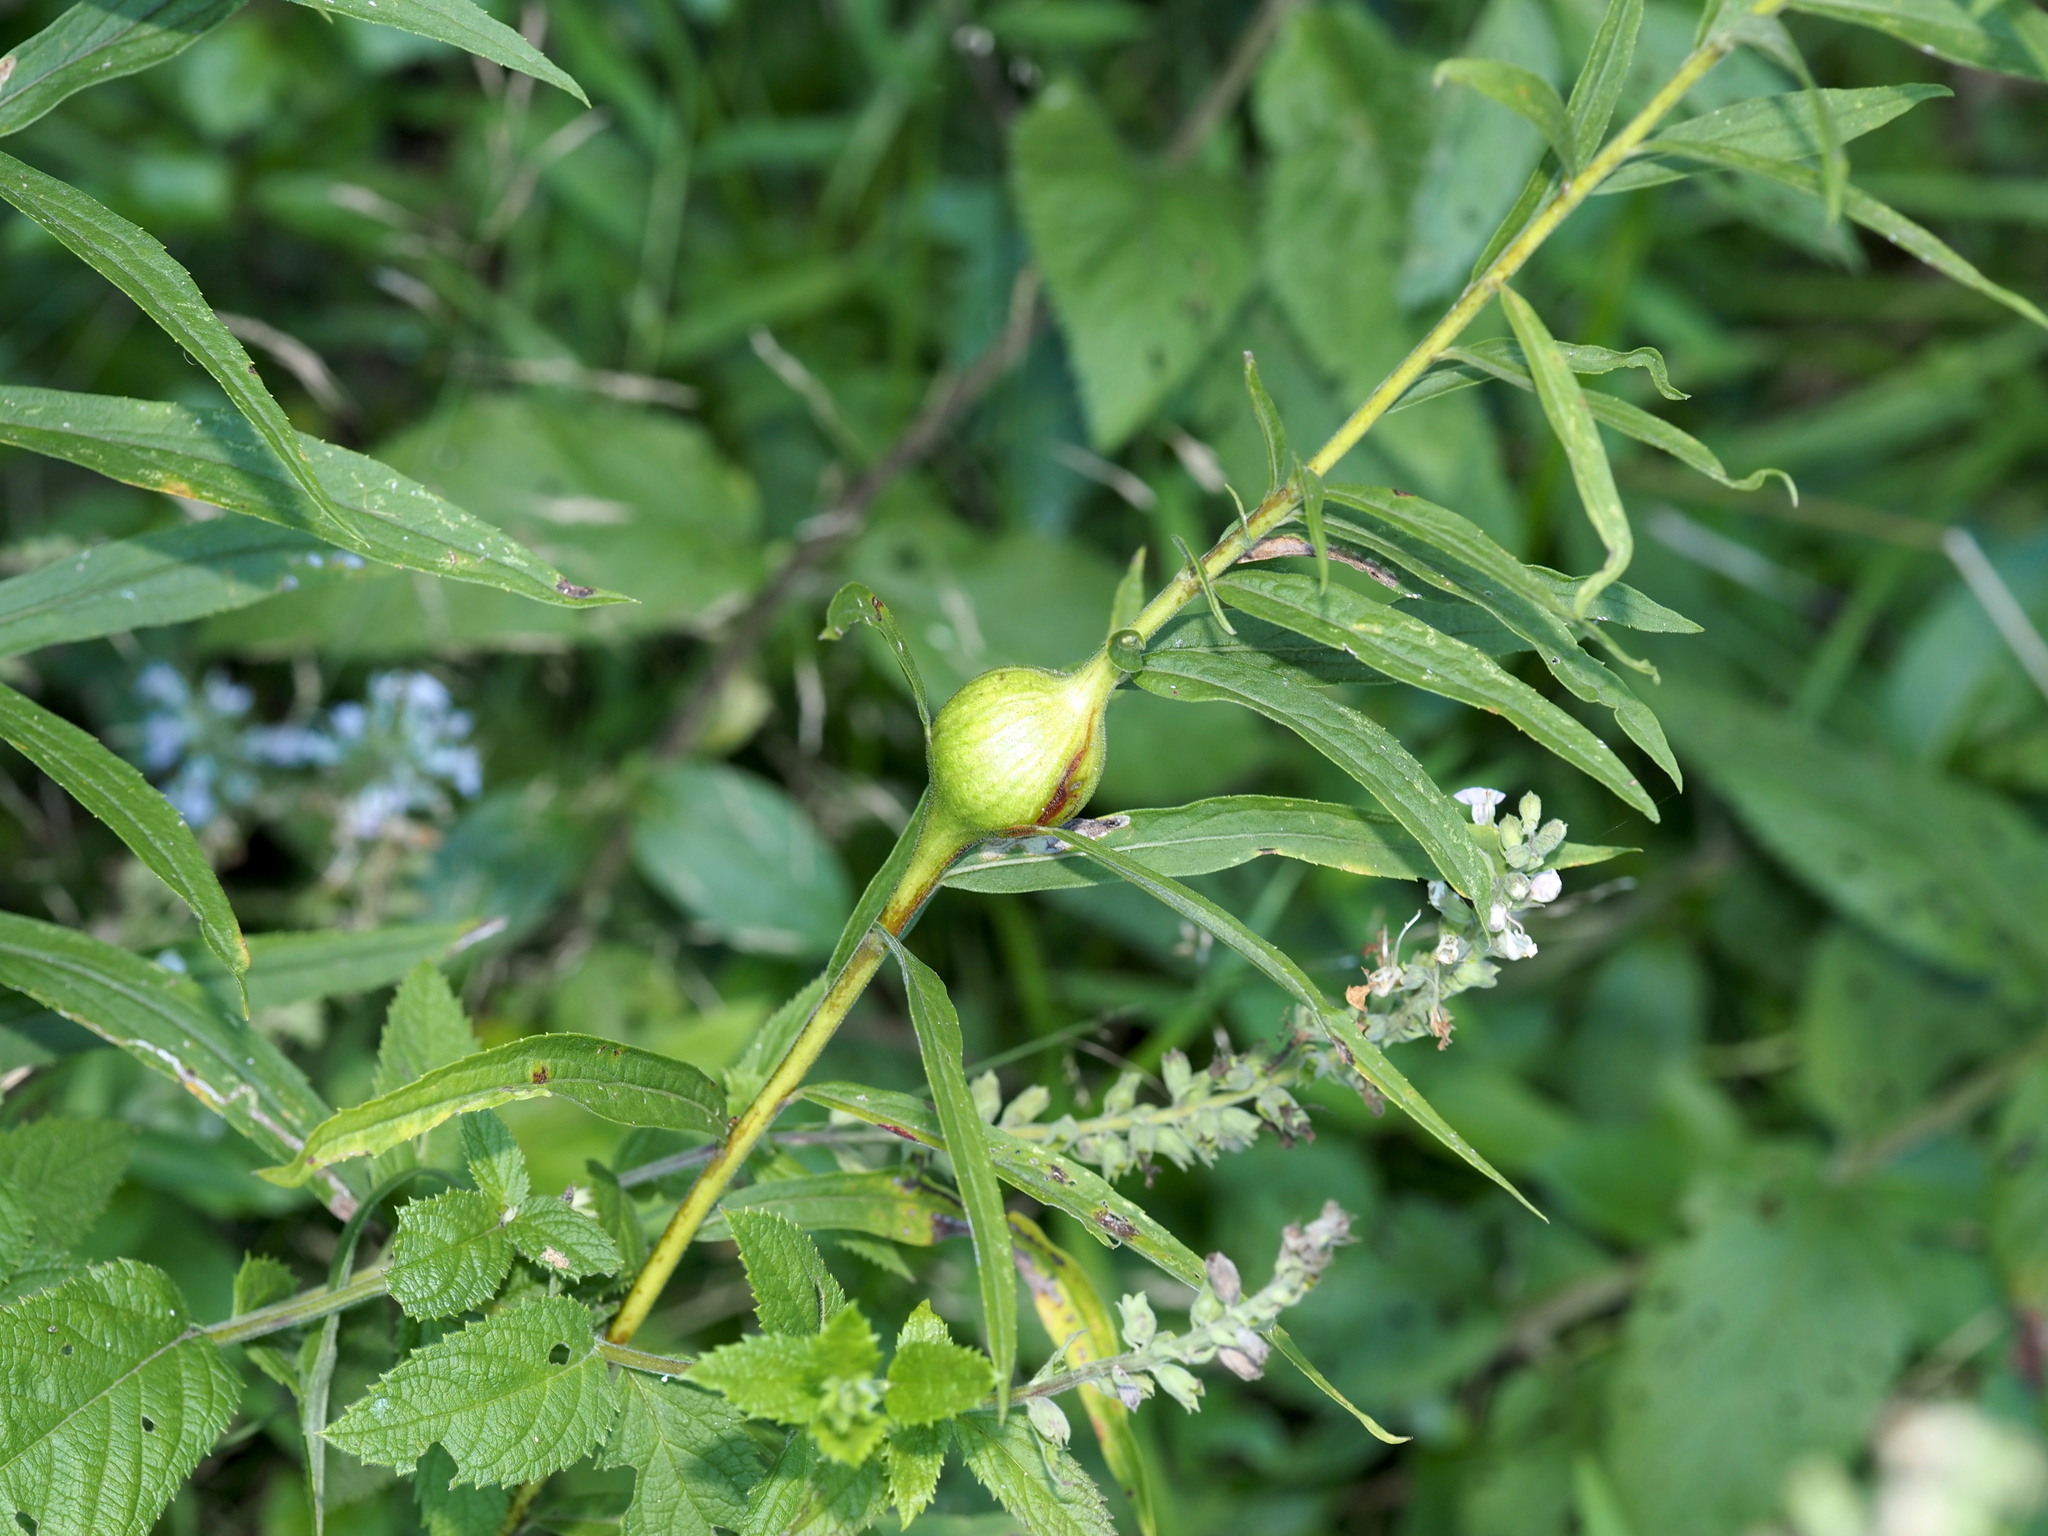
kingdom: Animalia
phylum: Arthropoda
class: Insecta
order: Diptera
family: Tephritidae
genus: Eurosta
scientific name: Eurosta solidaginis
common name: Goldenrod gall fly
